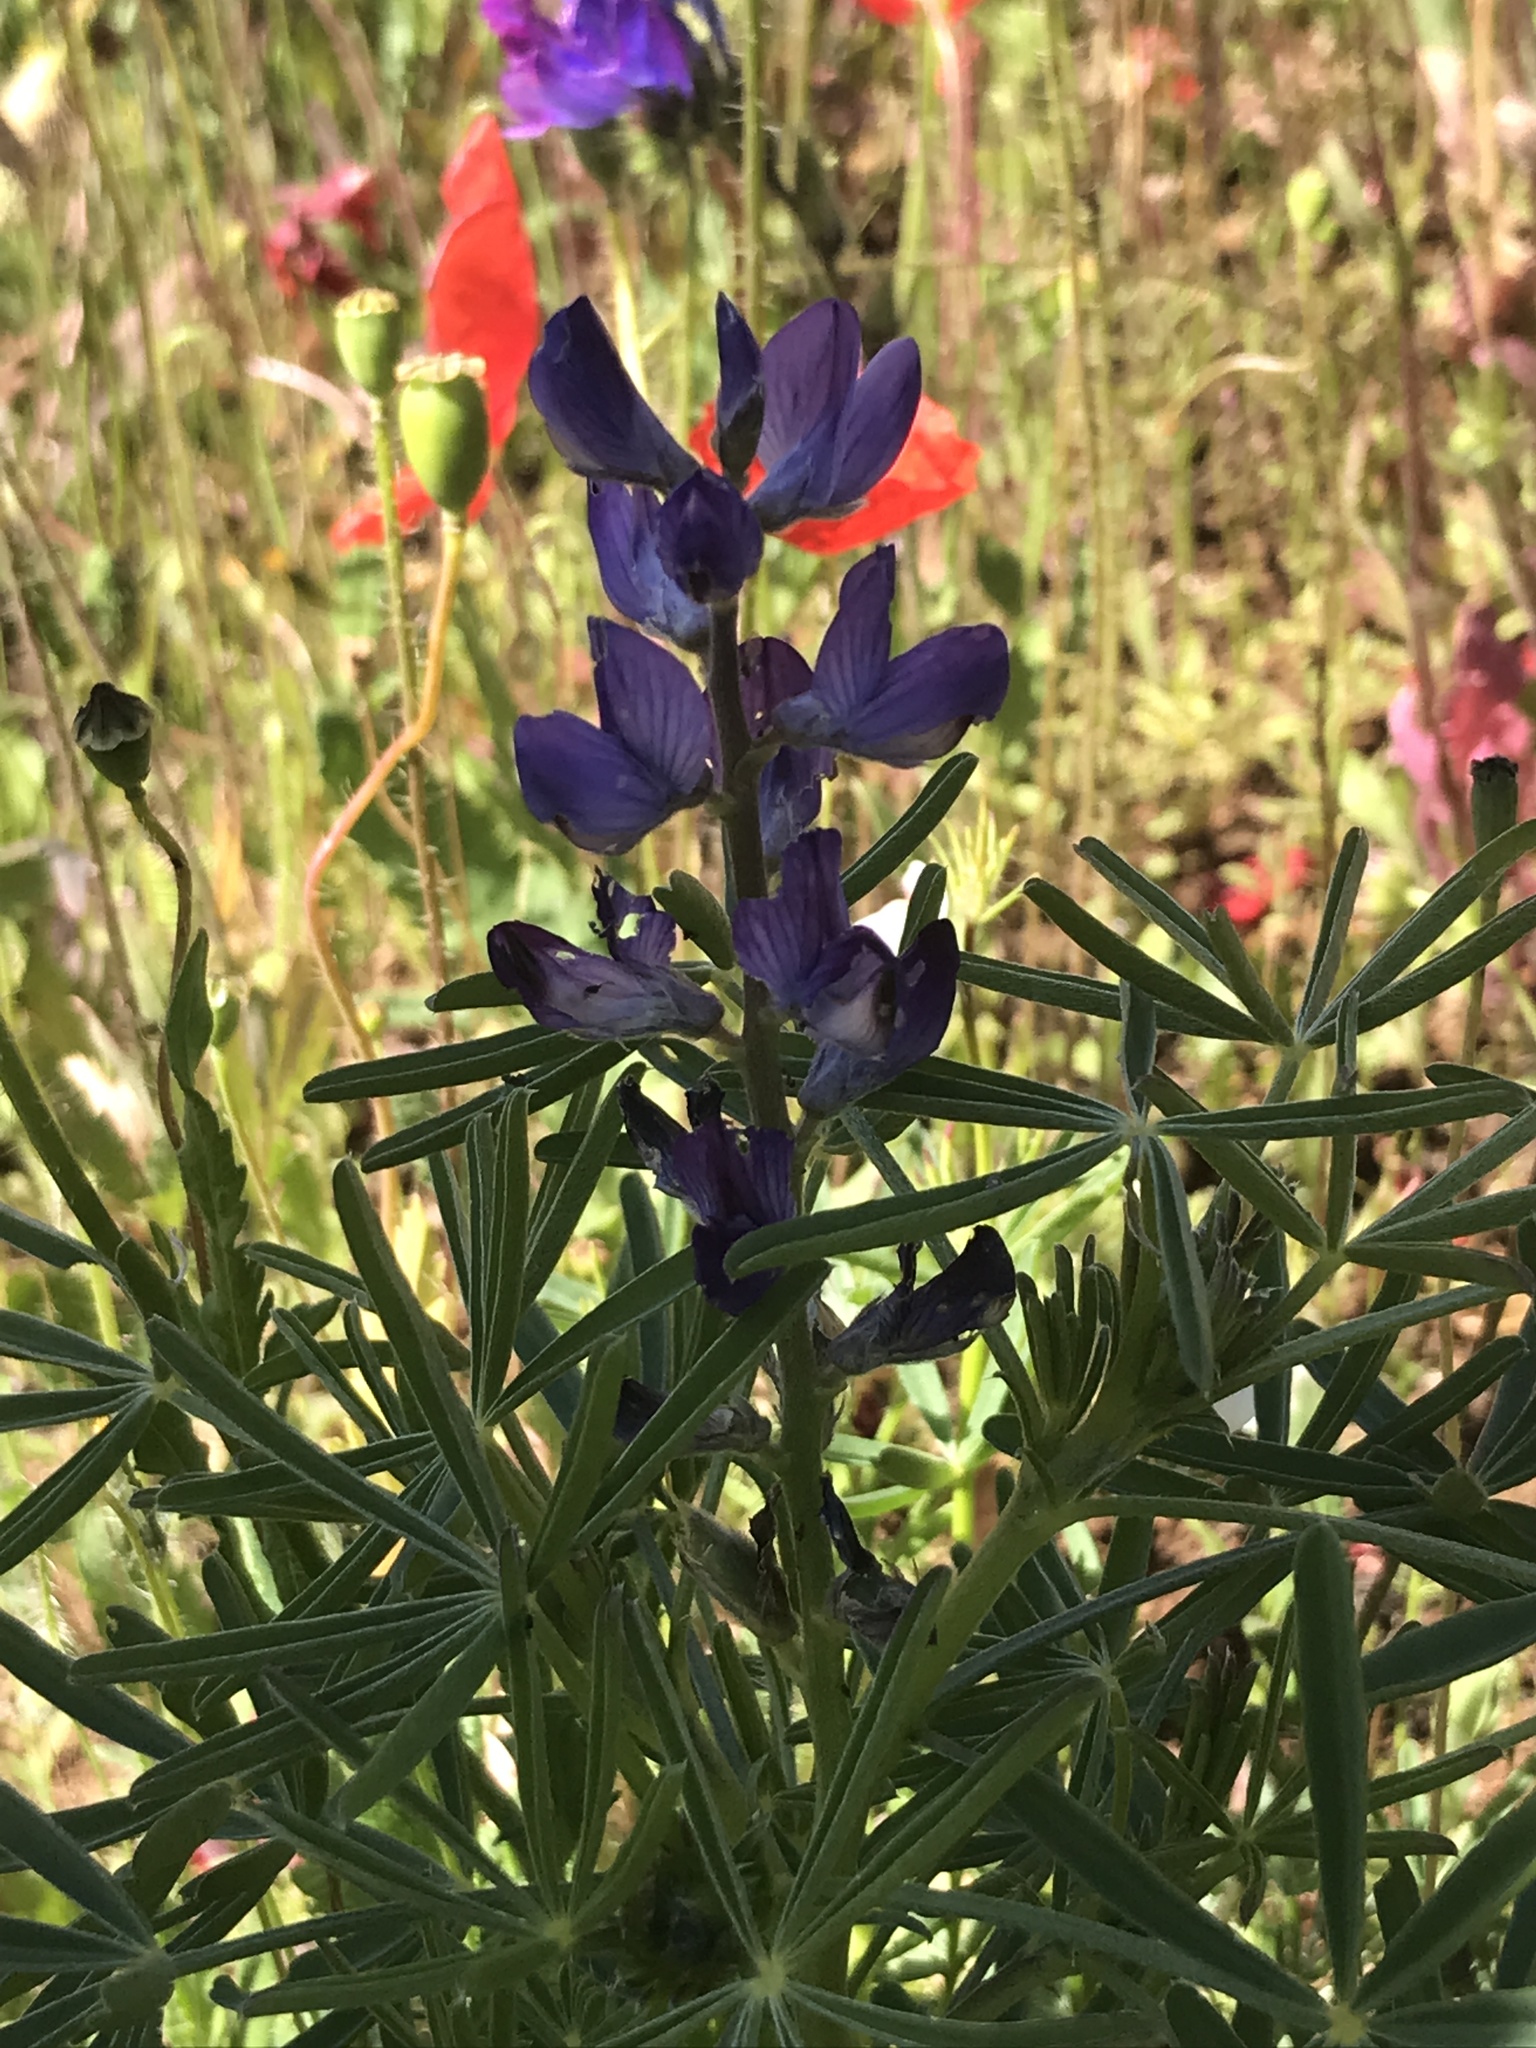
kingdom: Plantae
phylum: Tracheophyta
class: Magnoliopsida
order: Fabales
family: Fabaceae
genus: Lupinus
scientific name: Lupinus angustifolius
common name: Narrow-leaved lupin
